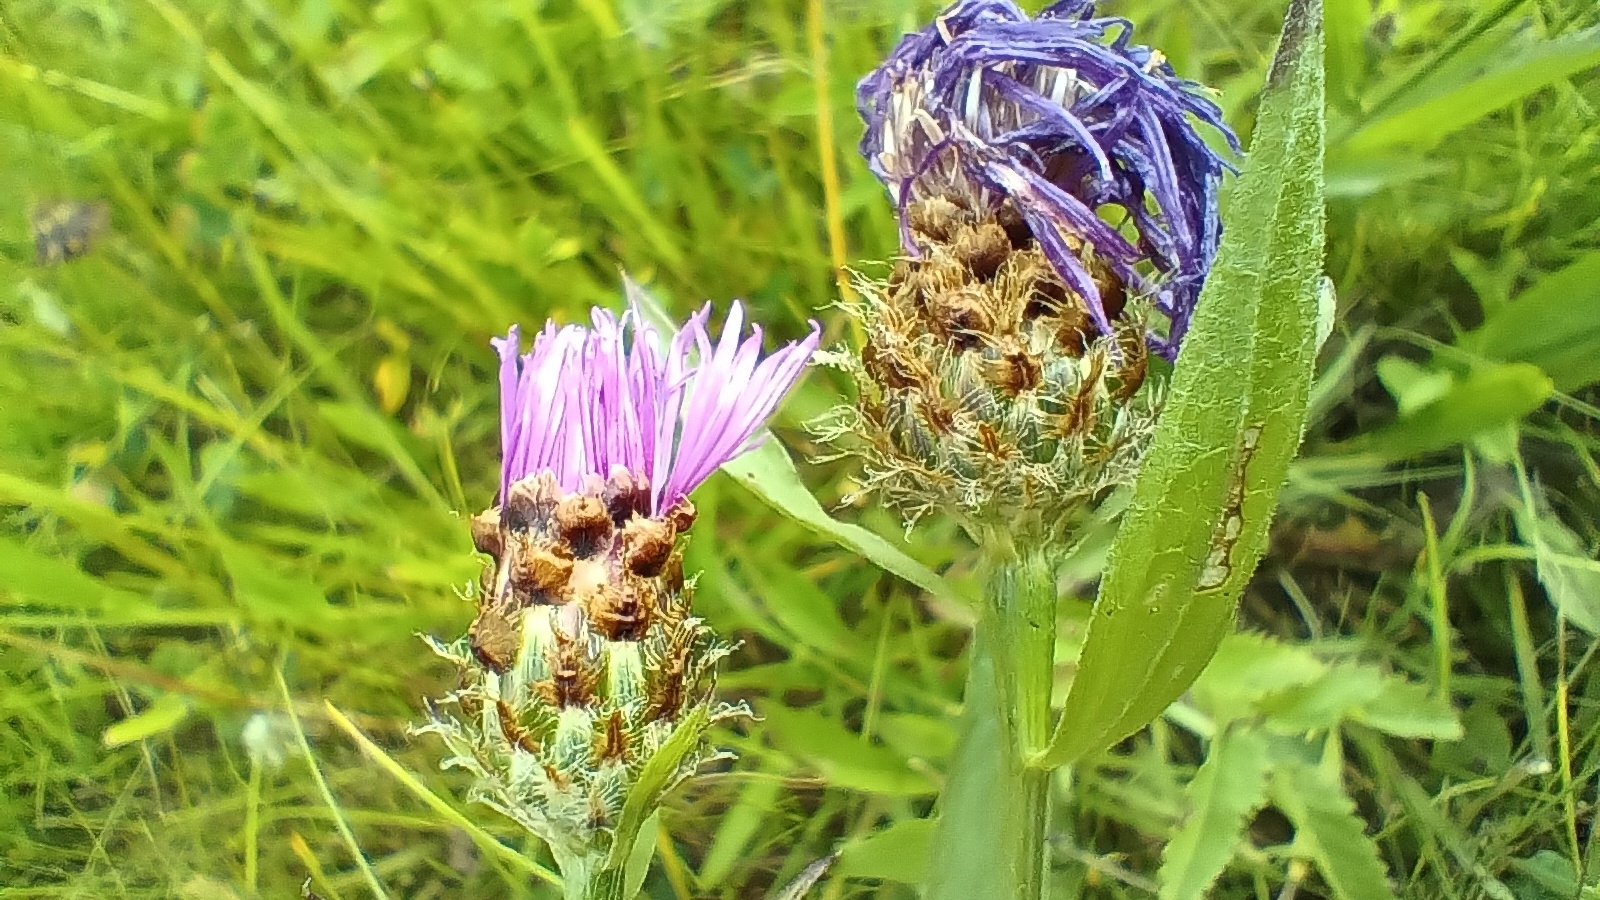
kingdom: Plantae
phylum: Tracheophyta
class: Magnoliopsida
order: Asterales
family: Asteraceae
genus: Centaurea
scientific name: Centaurea fleischeri
